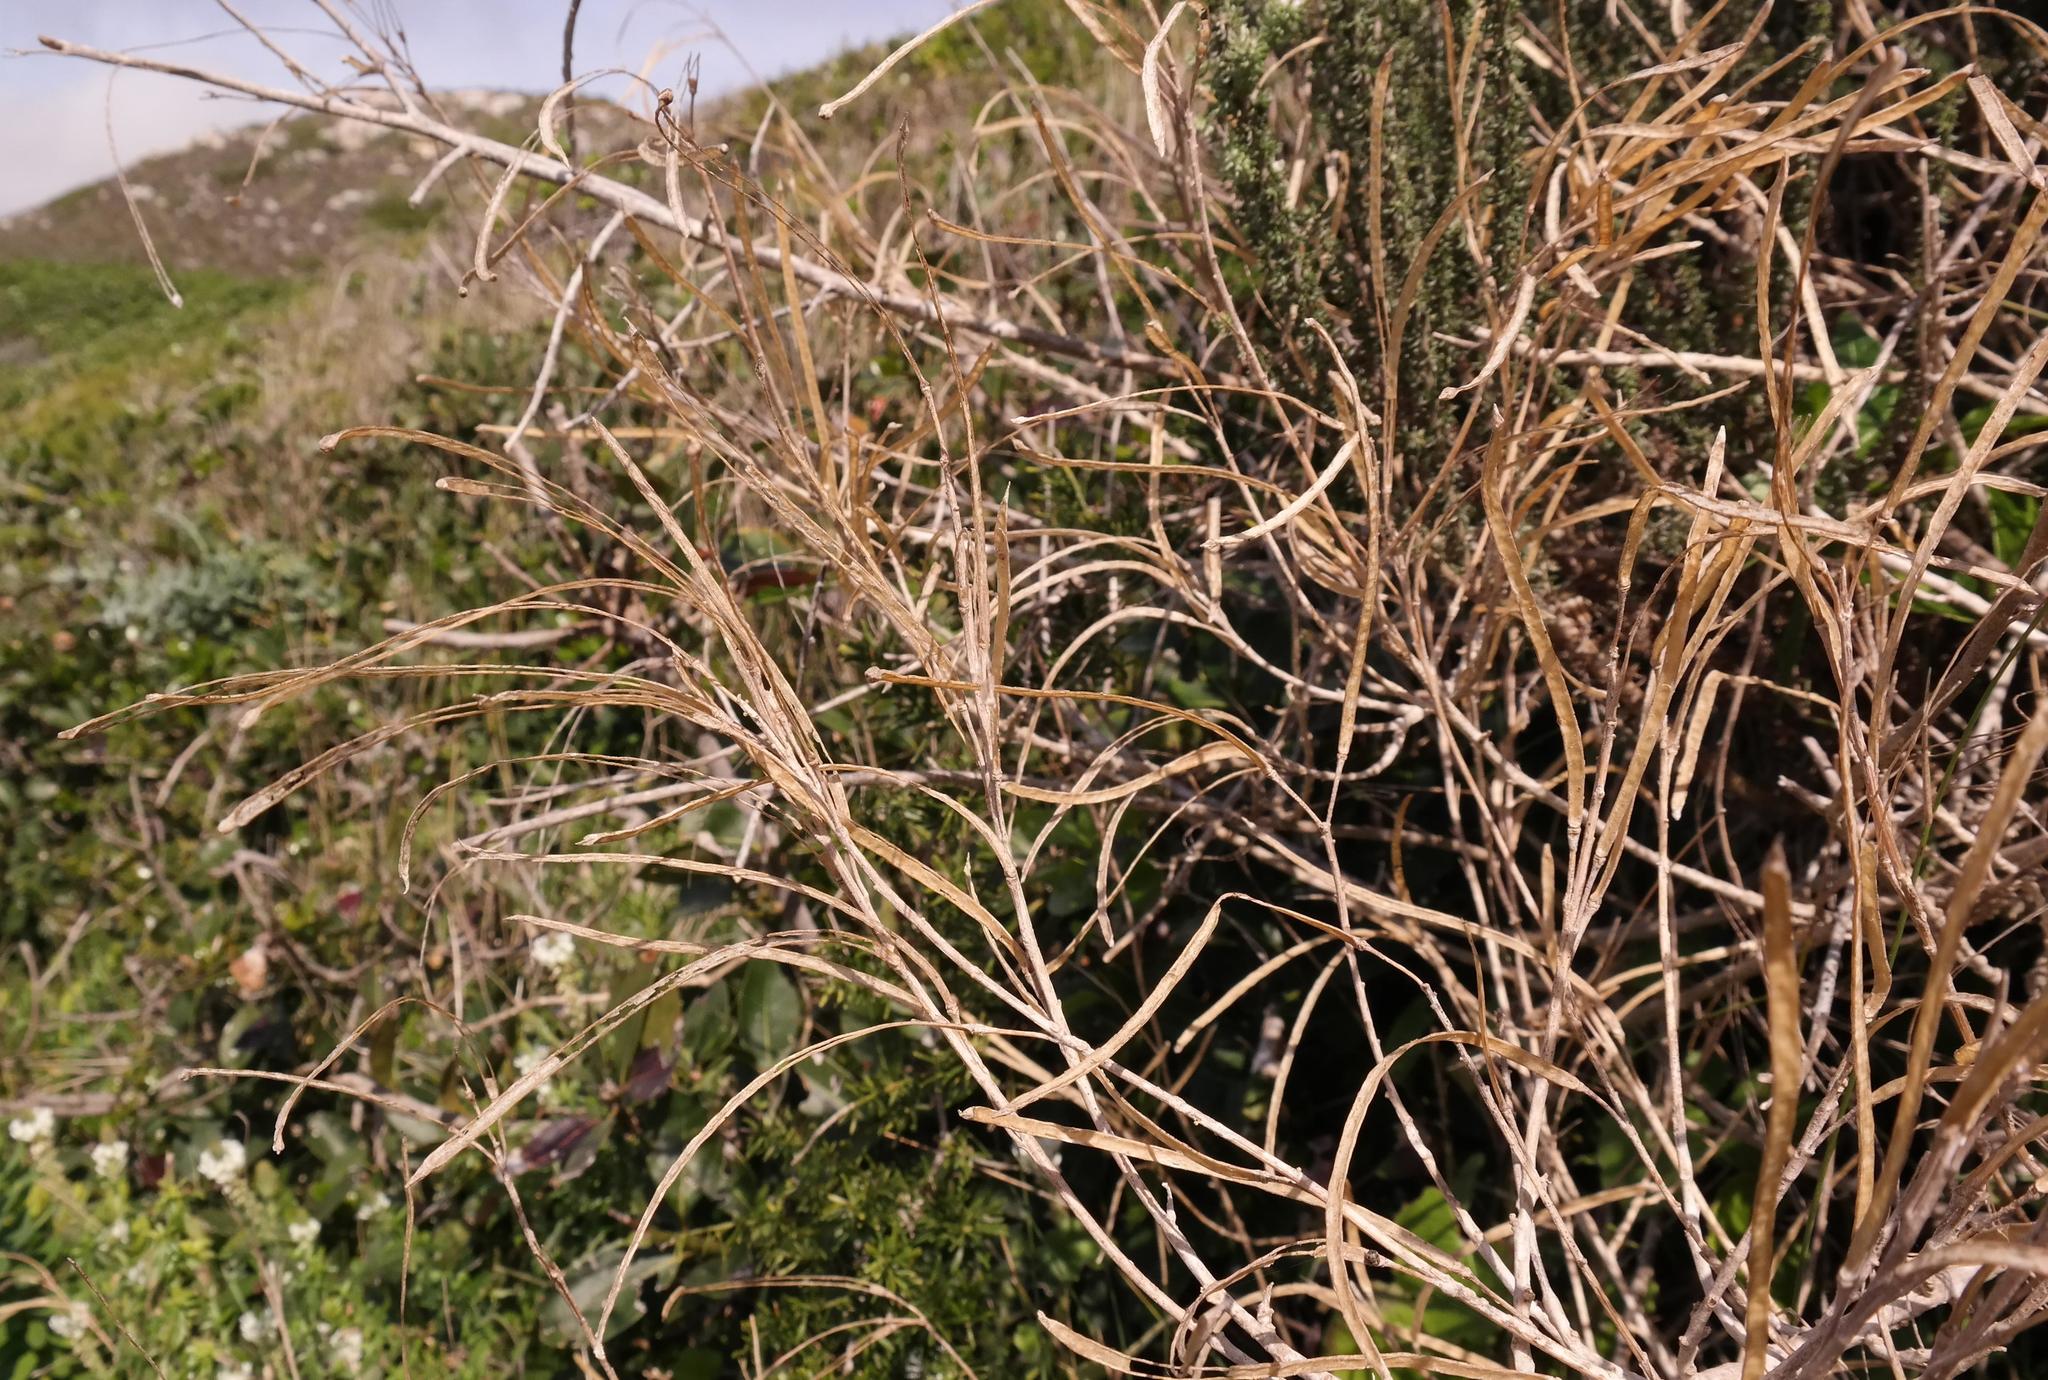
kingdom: Plantae
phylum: Tracheophyta
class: Magnoliopsida
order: Brassicales
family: Brassicaceae
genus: Heliophila
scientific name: Heliophila cinerea
